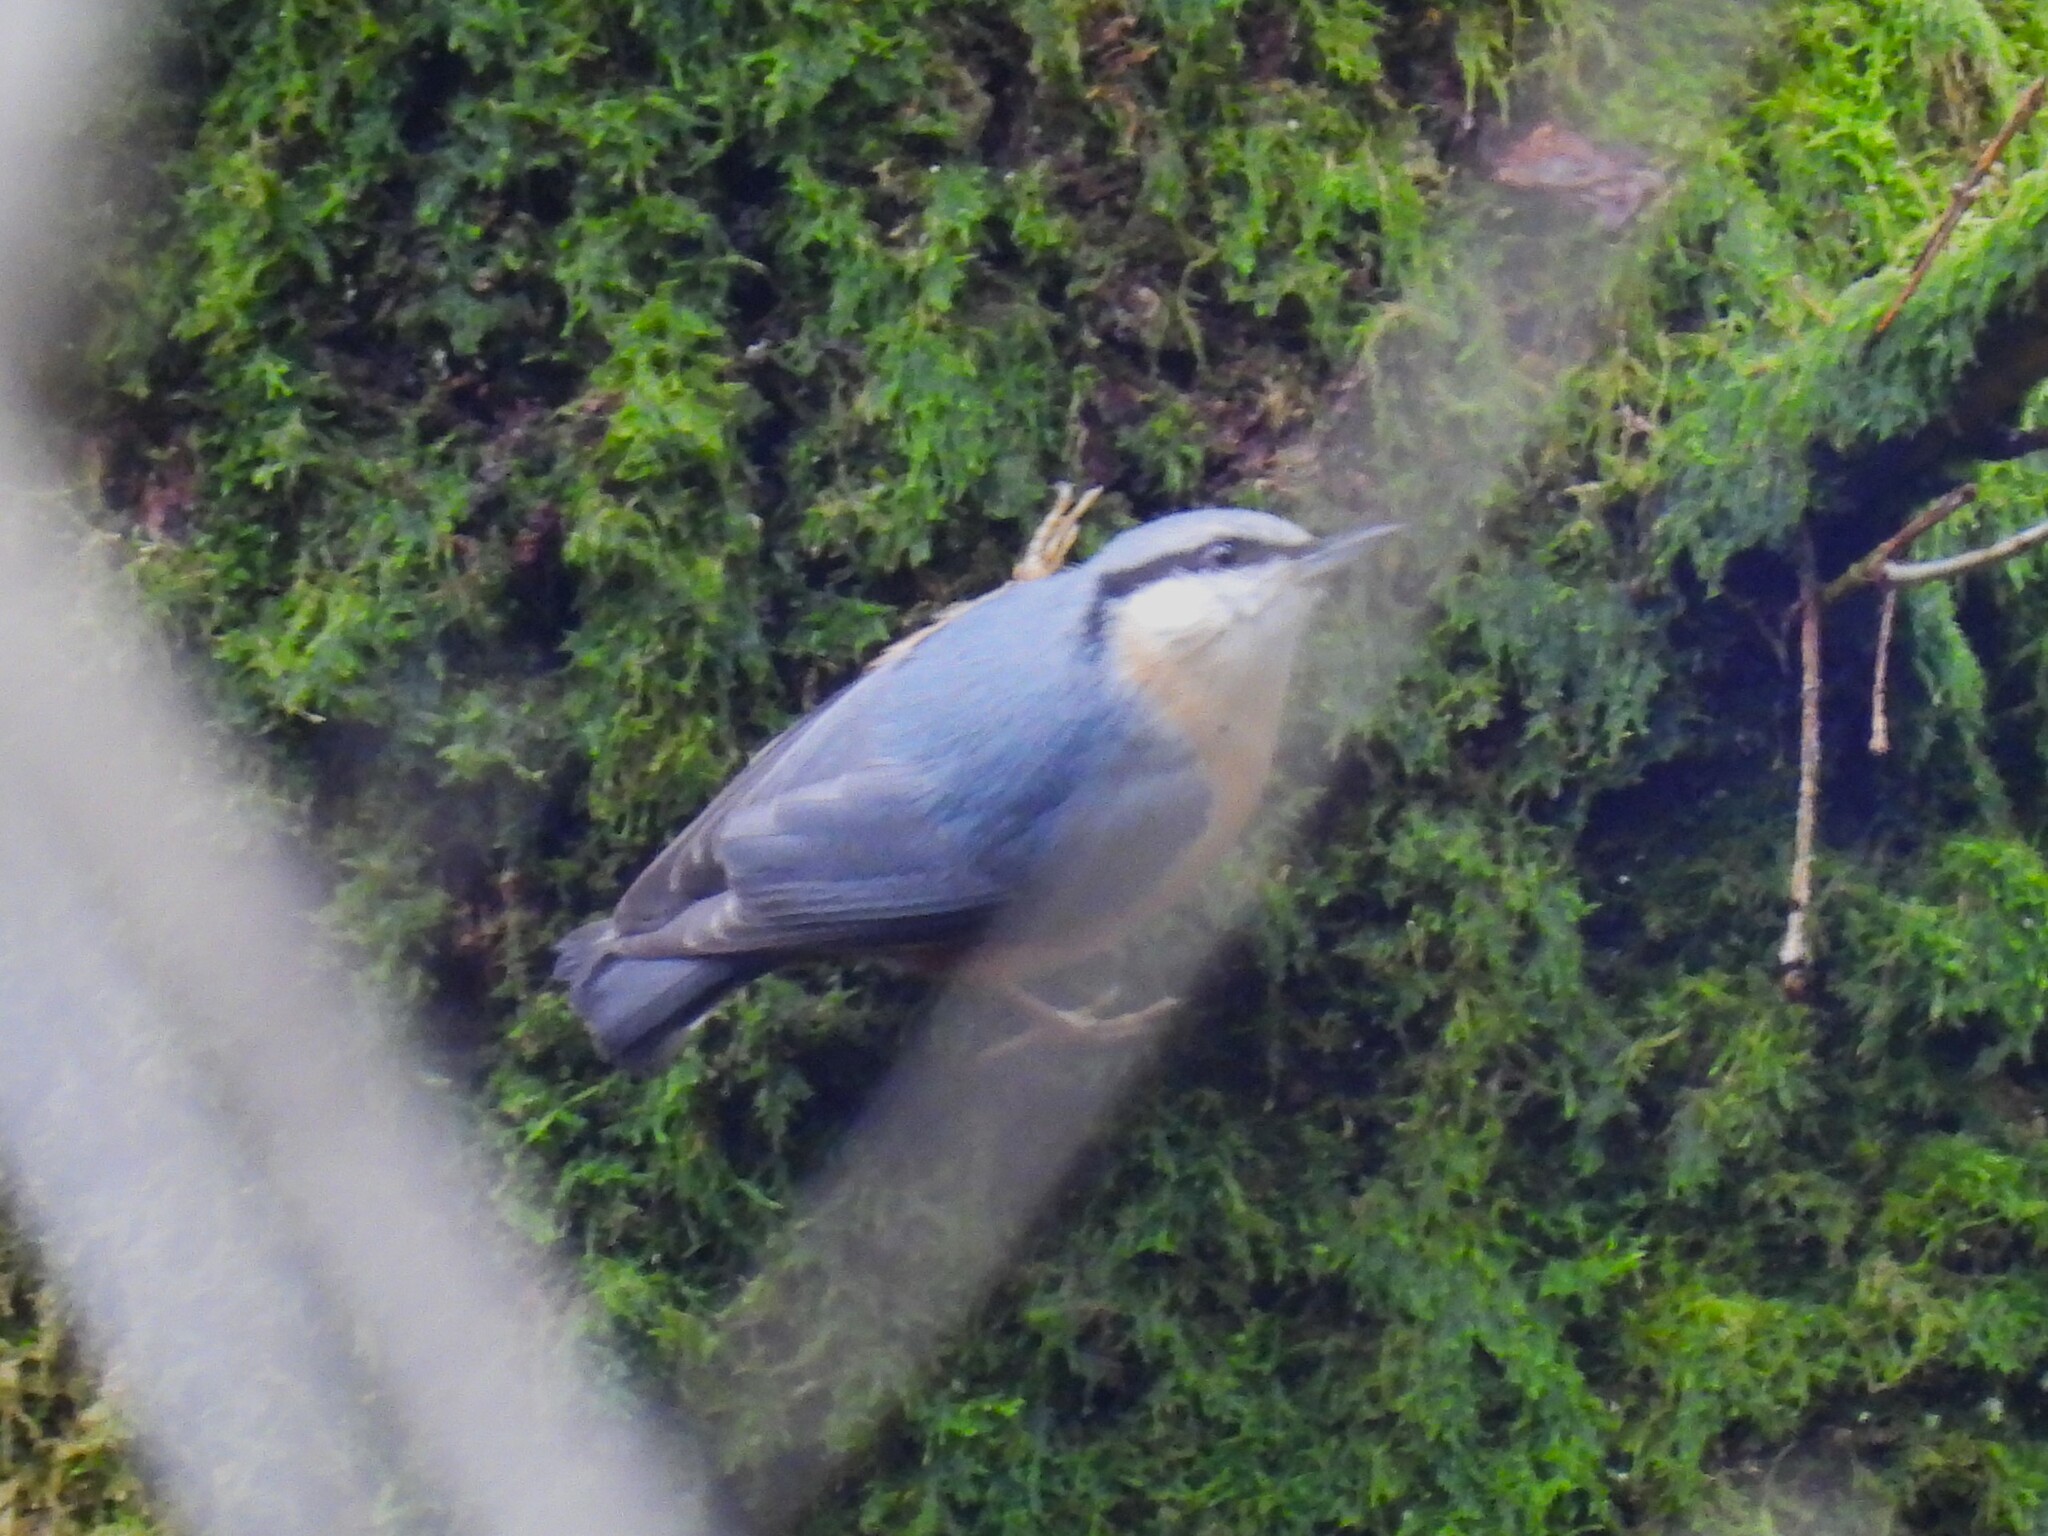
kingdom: Animalia
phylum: Chordata
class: Aves
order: Passeriformes
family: Sittidae
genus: Sitta
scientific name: Sitta europaea
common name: Eurasian nuthatch
